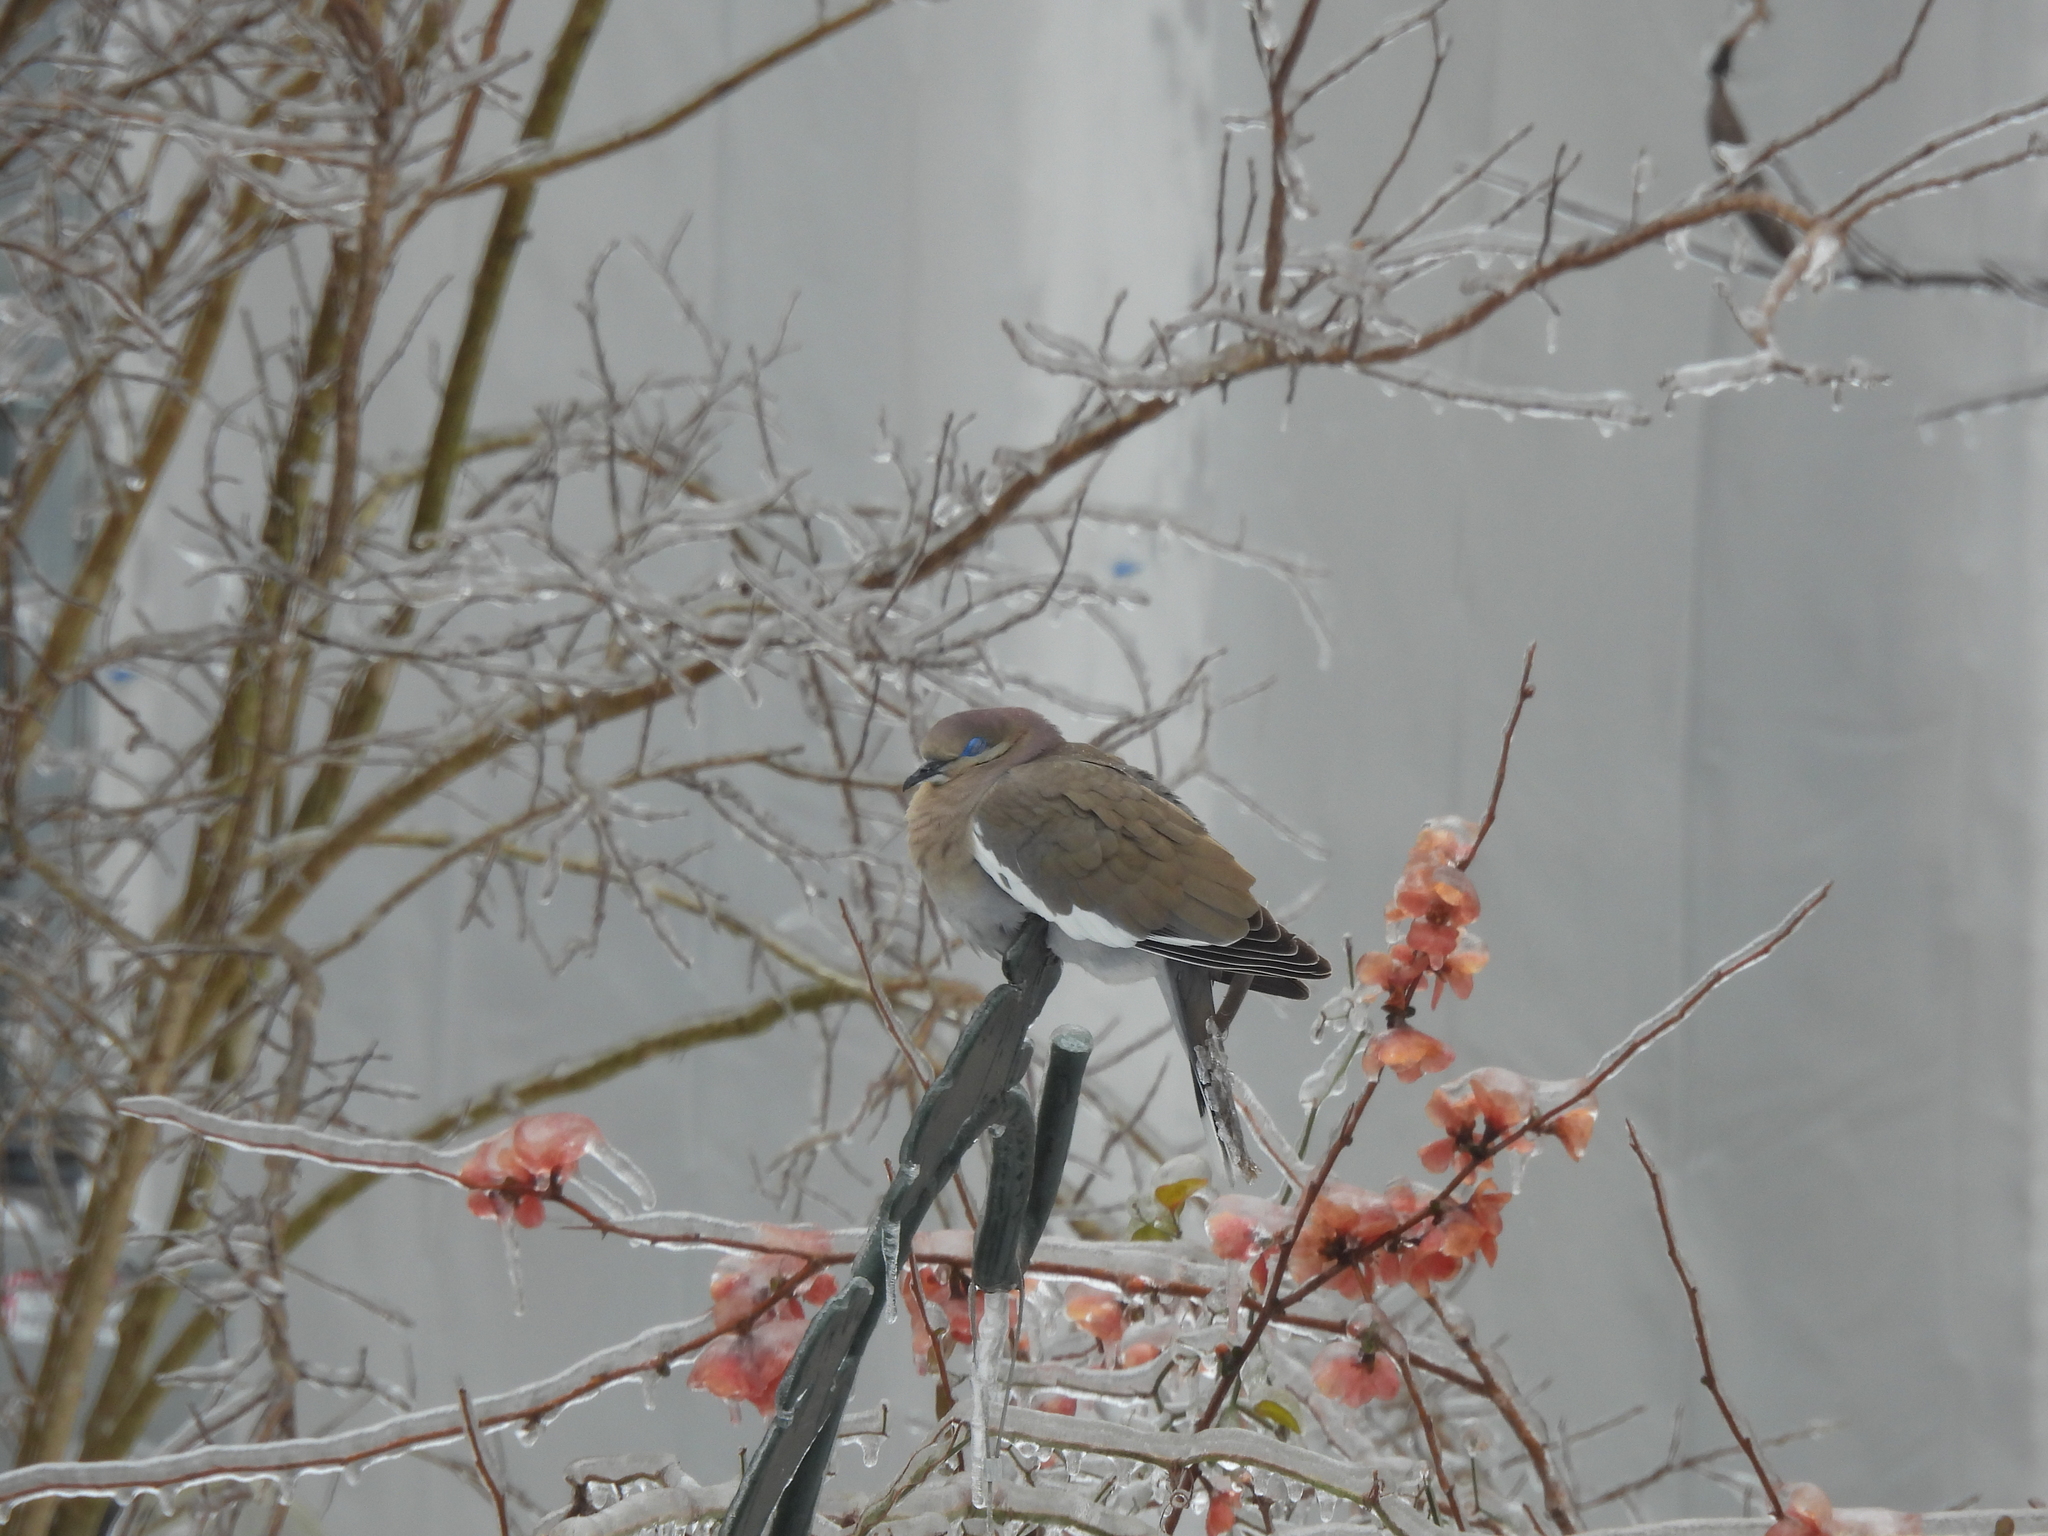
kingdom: Animalia
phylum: Chordata
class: Aves
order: Columbiformes
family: Columbidae
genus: Zenaida
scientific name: Zenaida asiatica
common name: White-winged dove
